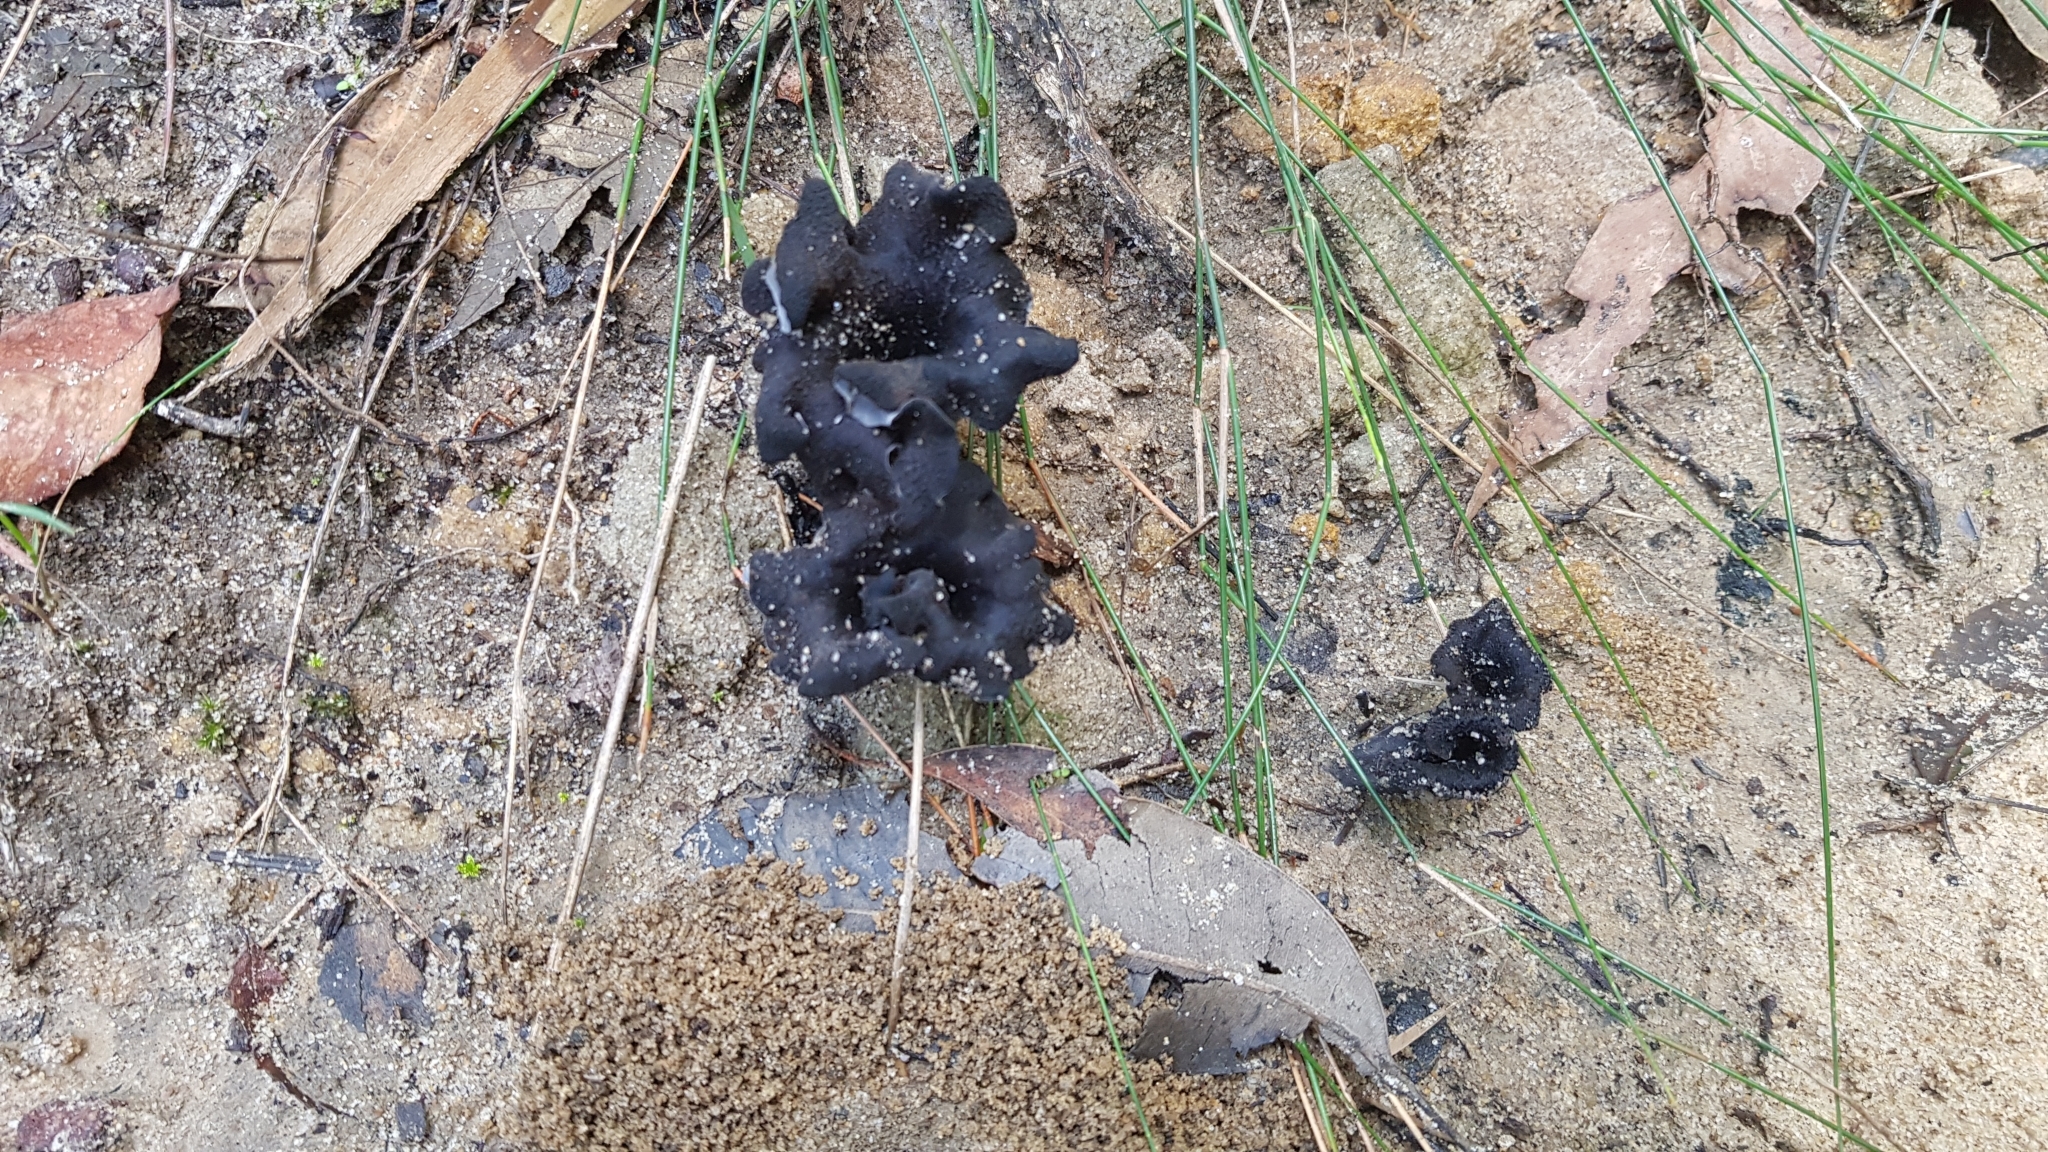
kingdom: Fungi
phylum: Basidiomycota
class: Agaricomycetes
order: Cantharellales
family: Hydnaceae
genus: Craterellus
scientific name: Craterellus cornucopioides
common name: Horn of plenty
